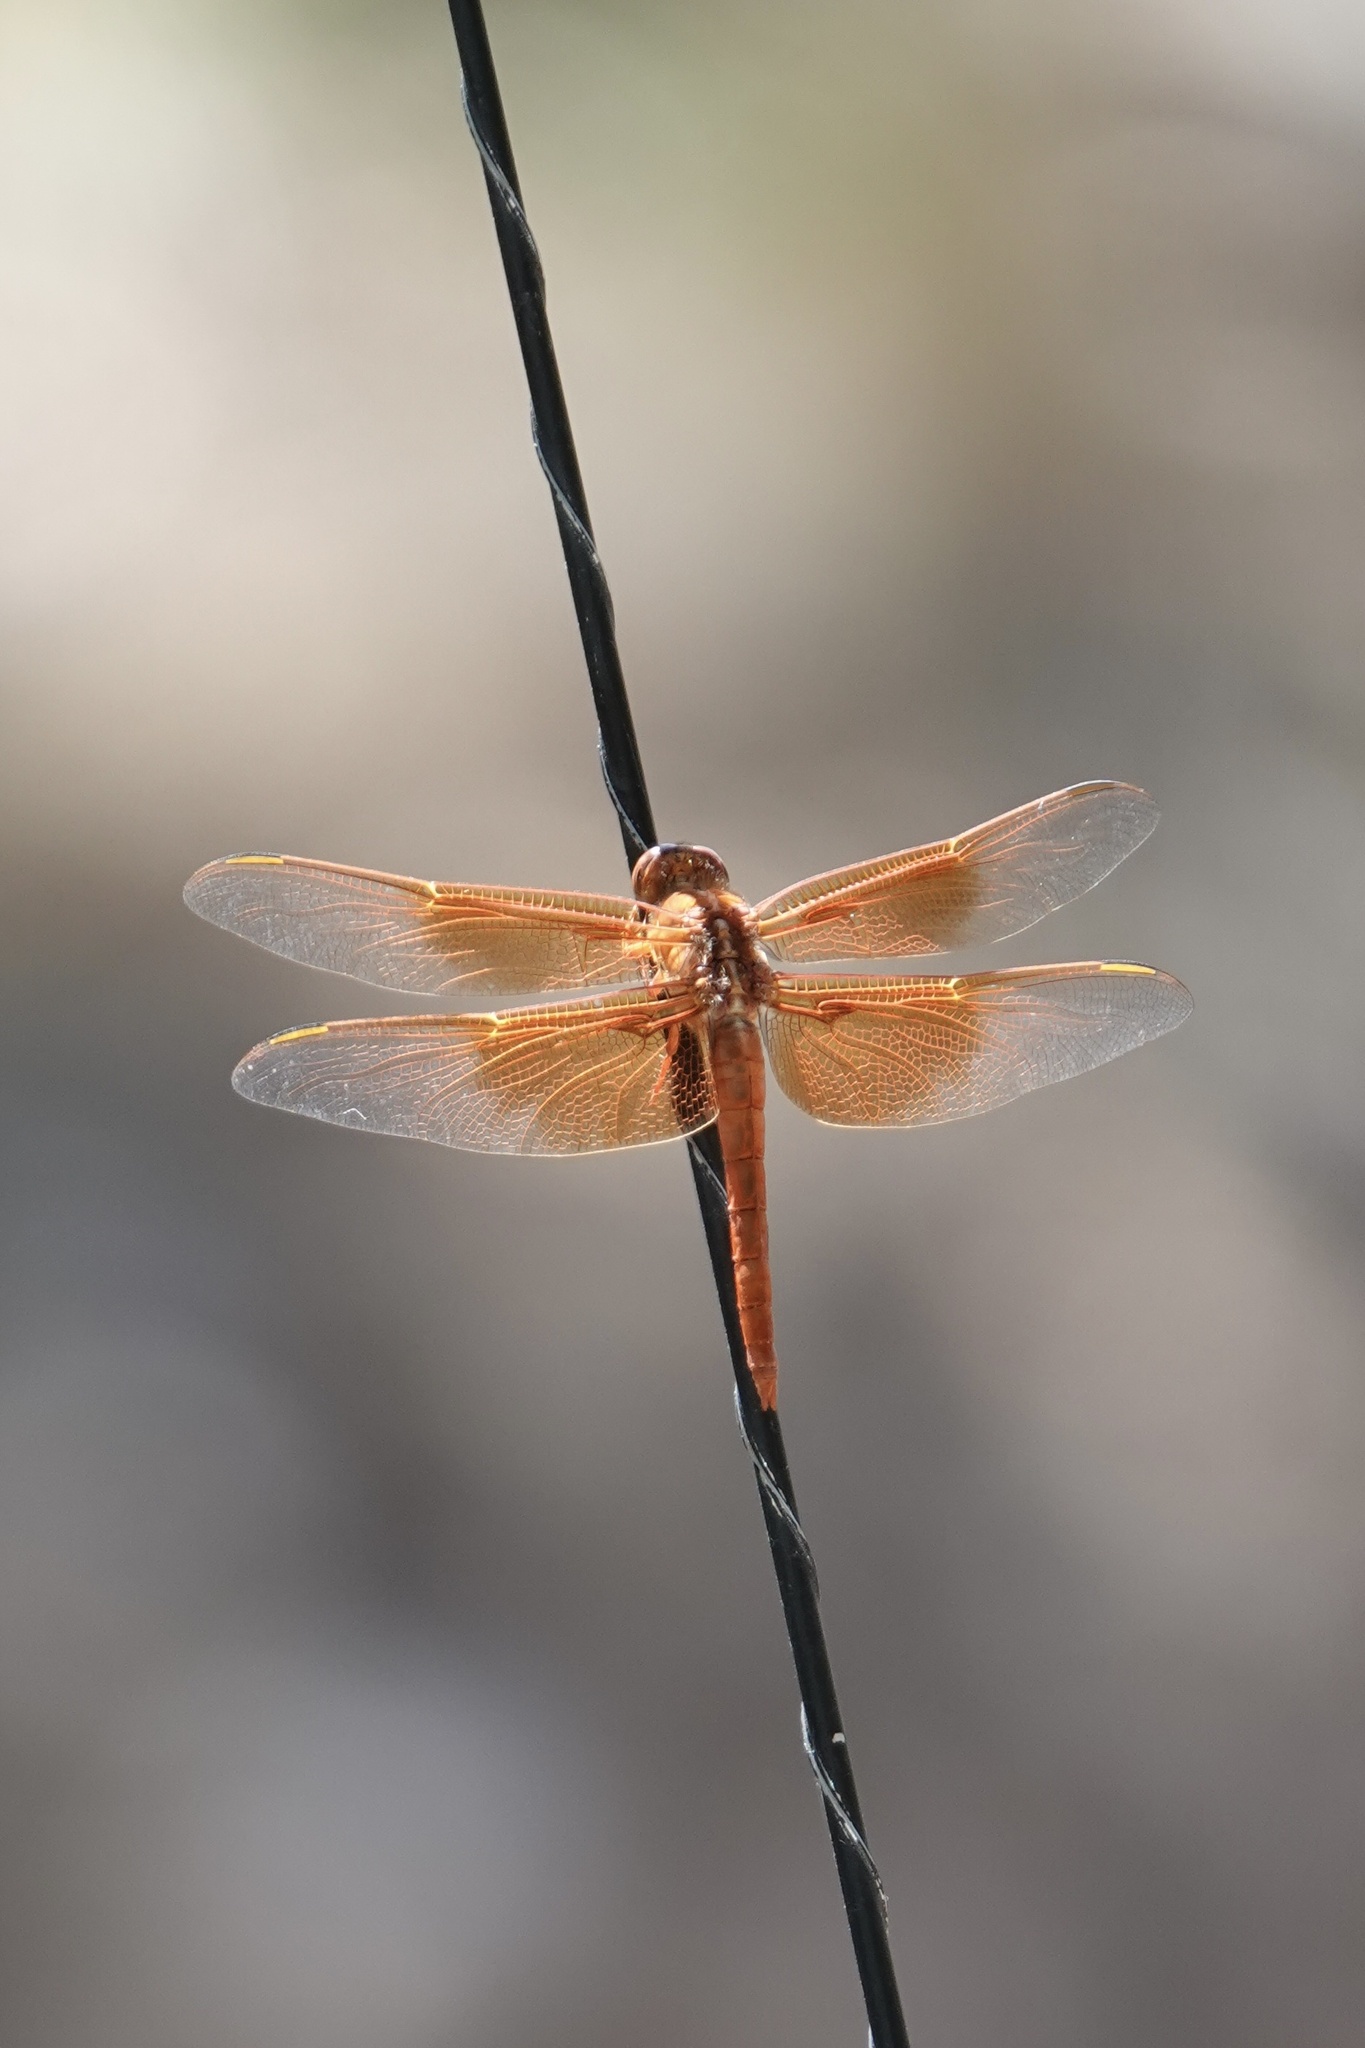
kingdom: Animalia
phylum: Arthropoda
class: Insecta
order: Odonata
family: Libellulidae
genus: Libellula
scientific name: Libellula saturata
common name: Flame skimmer
